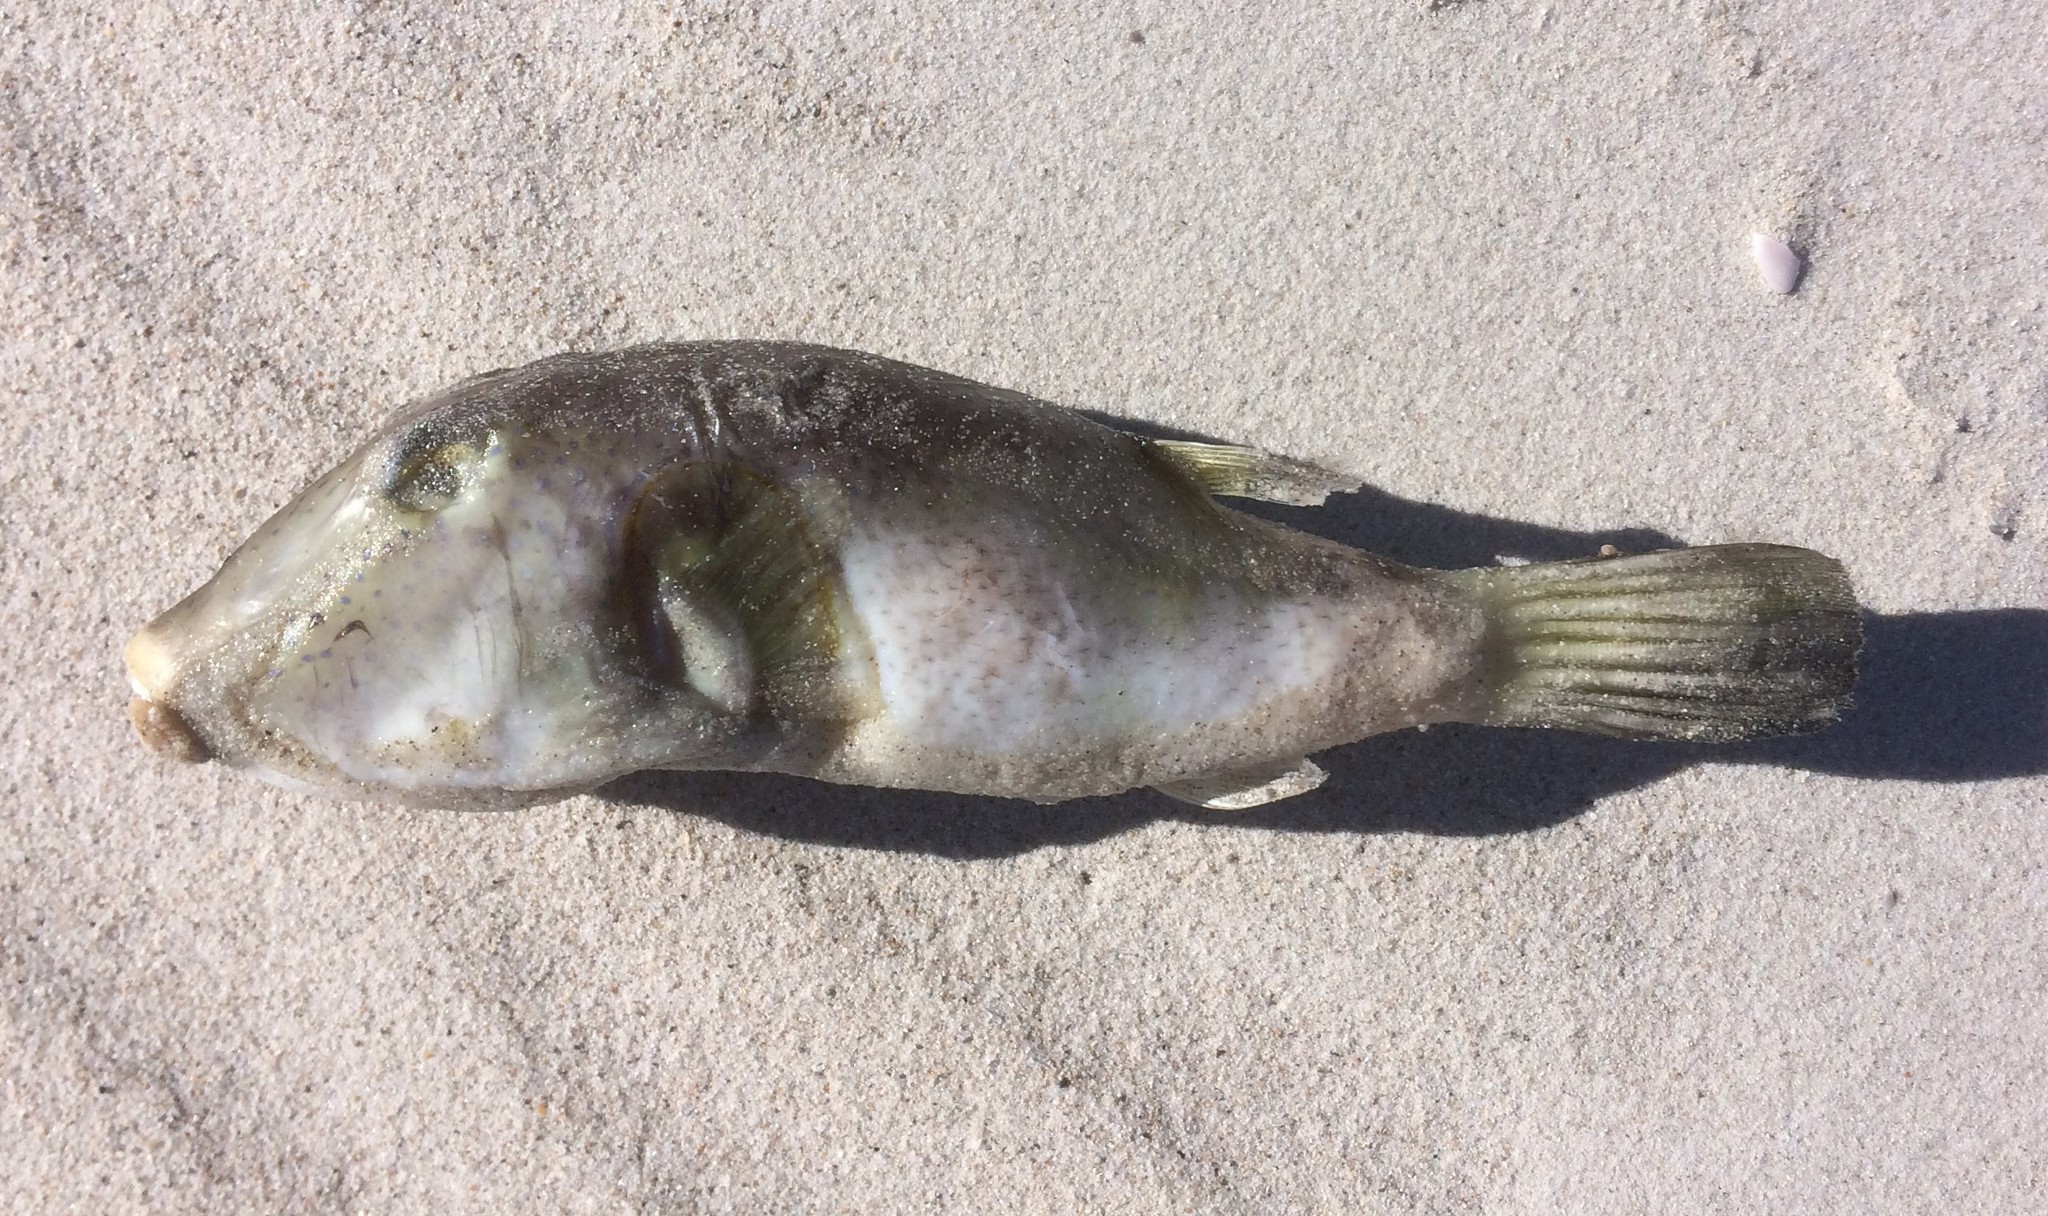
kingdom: Animalia
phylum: Chordata
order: Tetraodontiformes
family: Tetraodontidae
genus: Omegophora
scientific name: Omegophora armilla
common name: Ringed pufferfish
